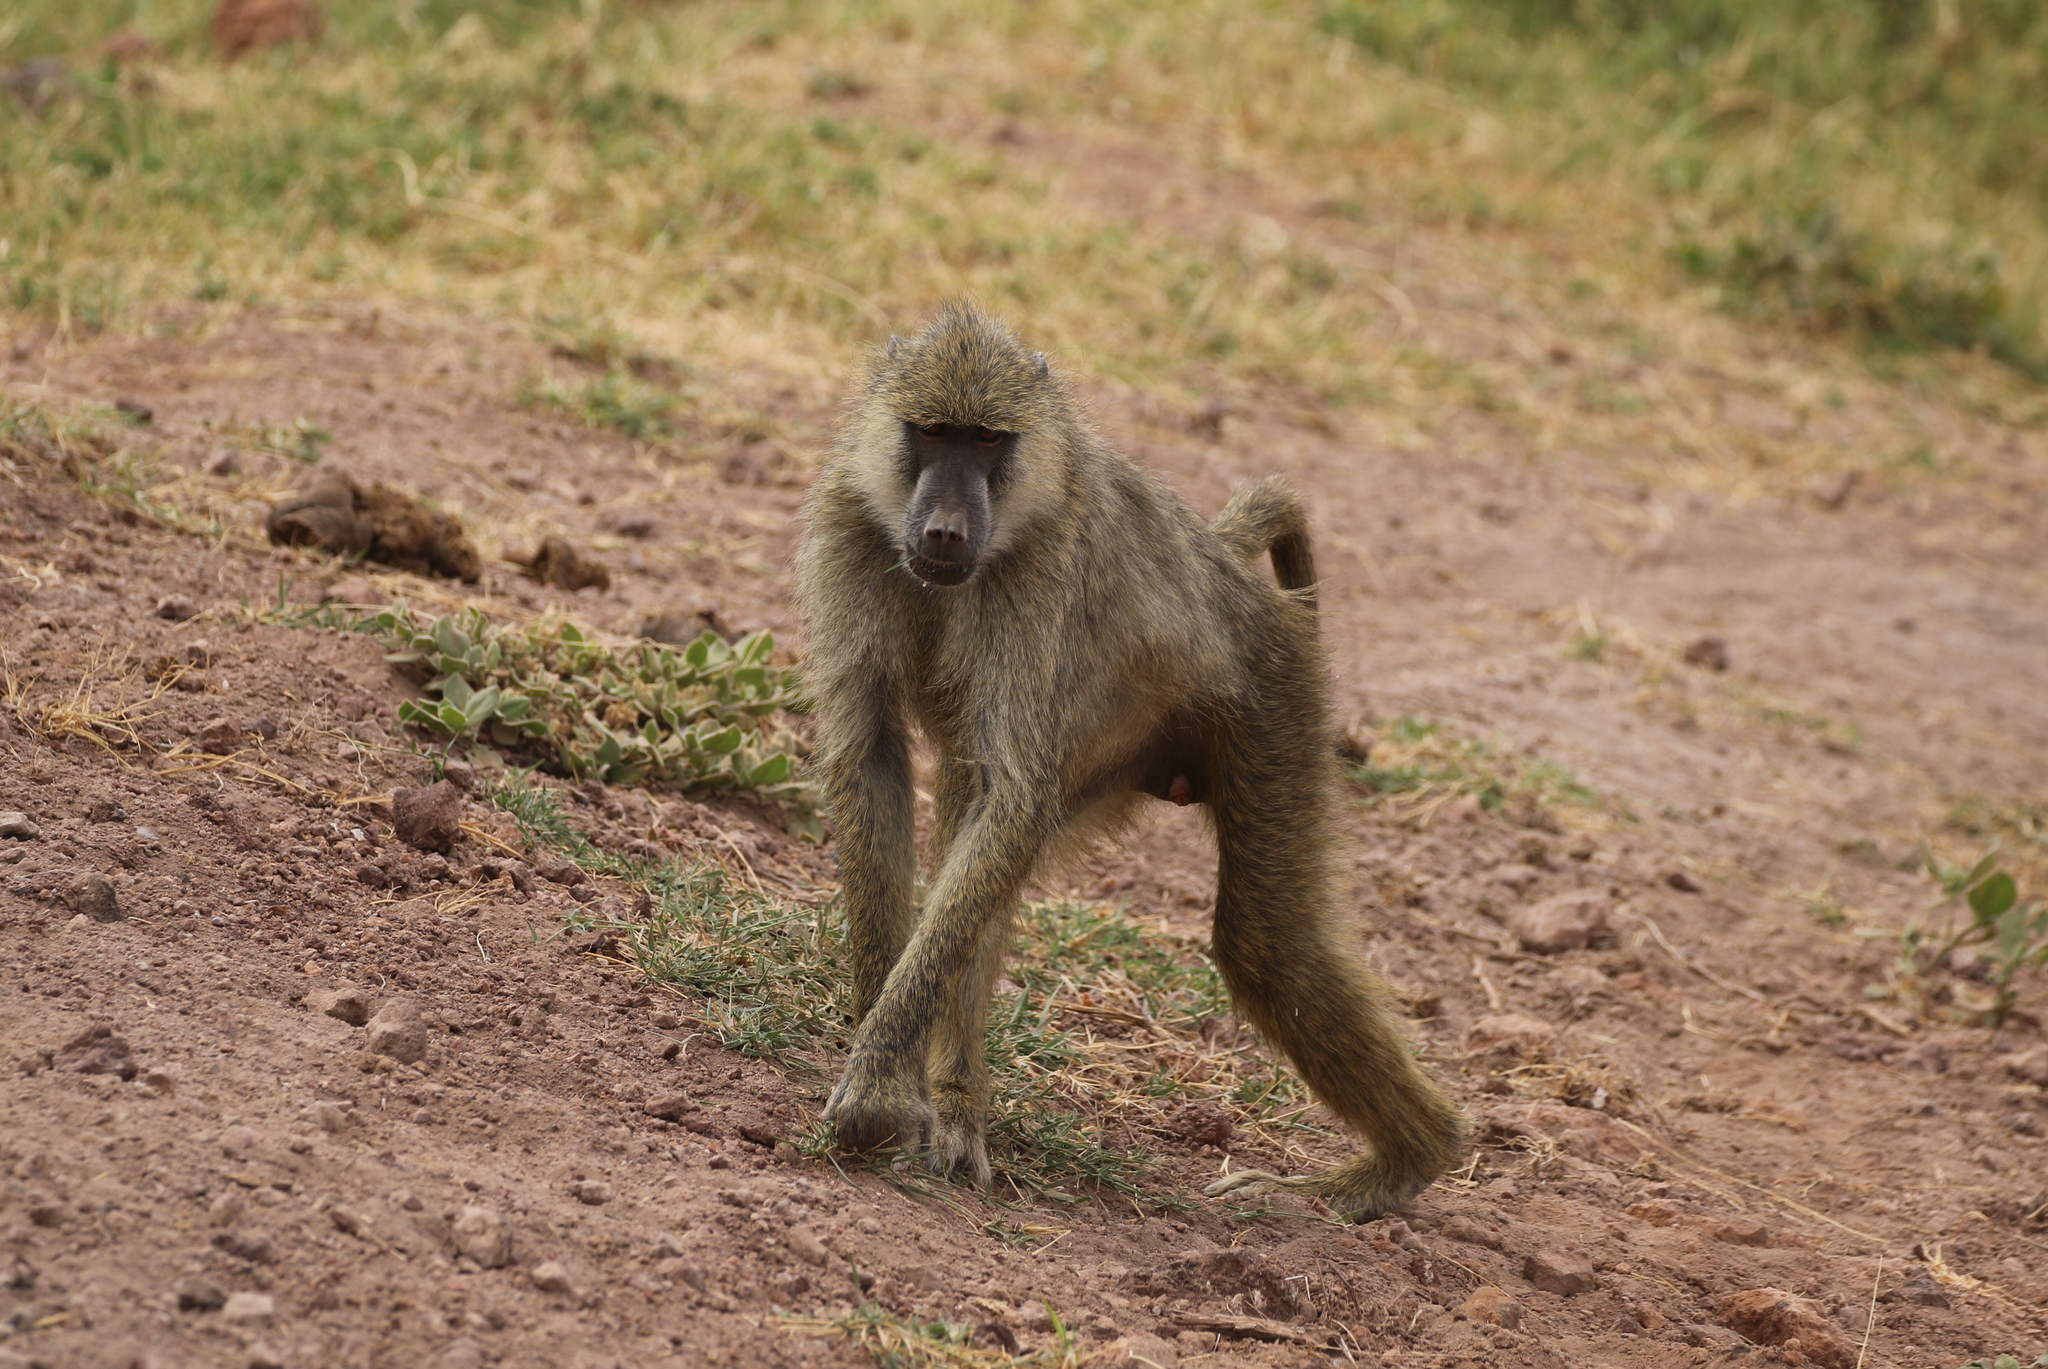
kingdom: Animalia
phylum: Chordata
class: Mammalia
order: Primates
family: Cercopithecidae
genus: Papio
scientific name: Papio cynocephalus
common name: Yellow baboon
